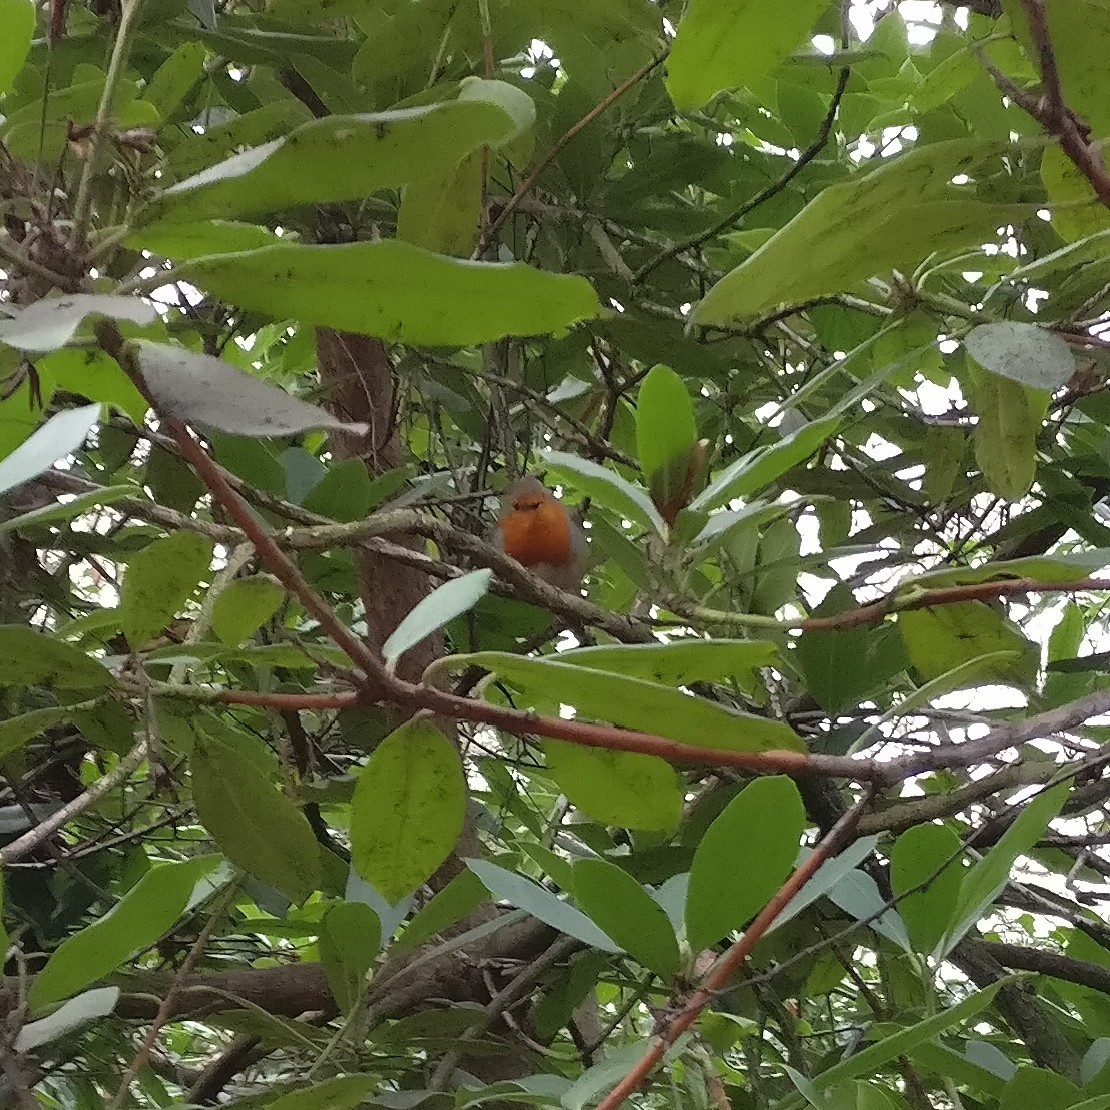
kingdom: Animalia
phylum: Chordata
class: Aves
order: Passeriformes
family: Muscicapidae
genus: Erithacus
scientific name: Erithacus rubecula
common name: European robin
